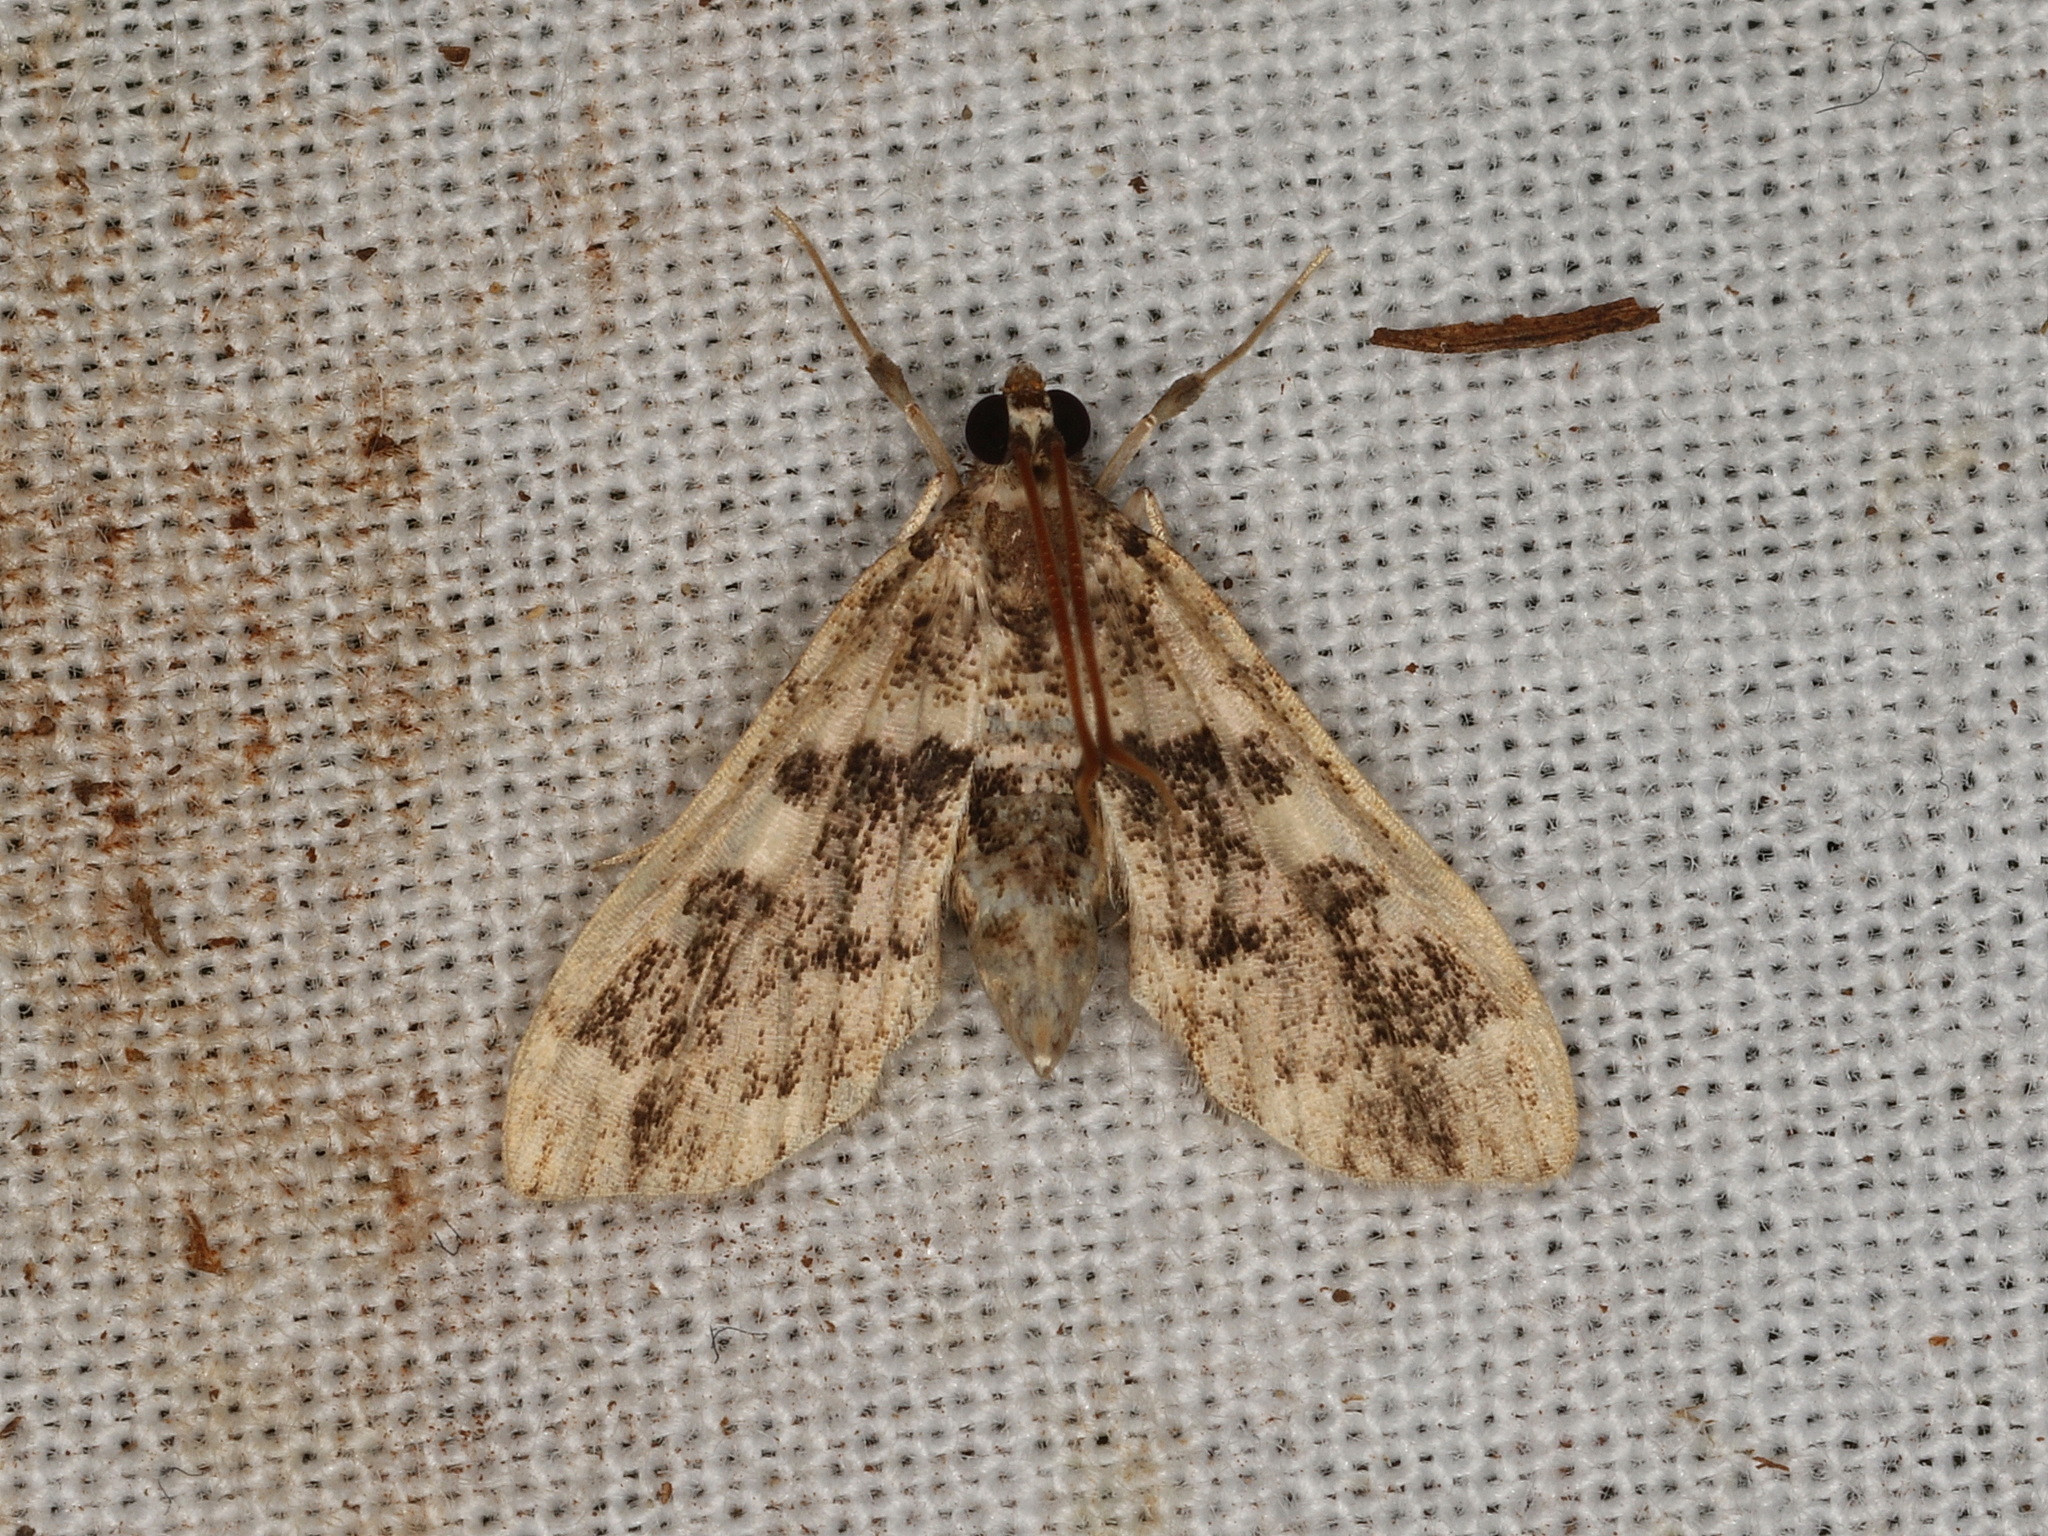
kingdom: Animalia
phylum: Arthropoda
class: Insecta
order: Lepidoptera
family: Crambidae
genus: Nacoleia
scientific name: Nacoleia rhoeoalis
